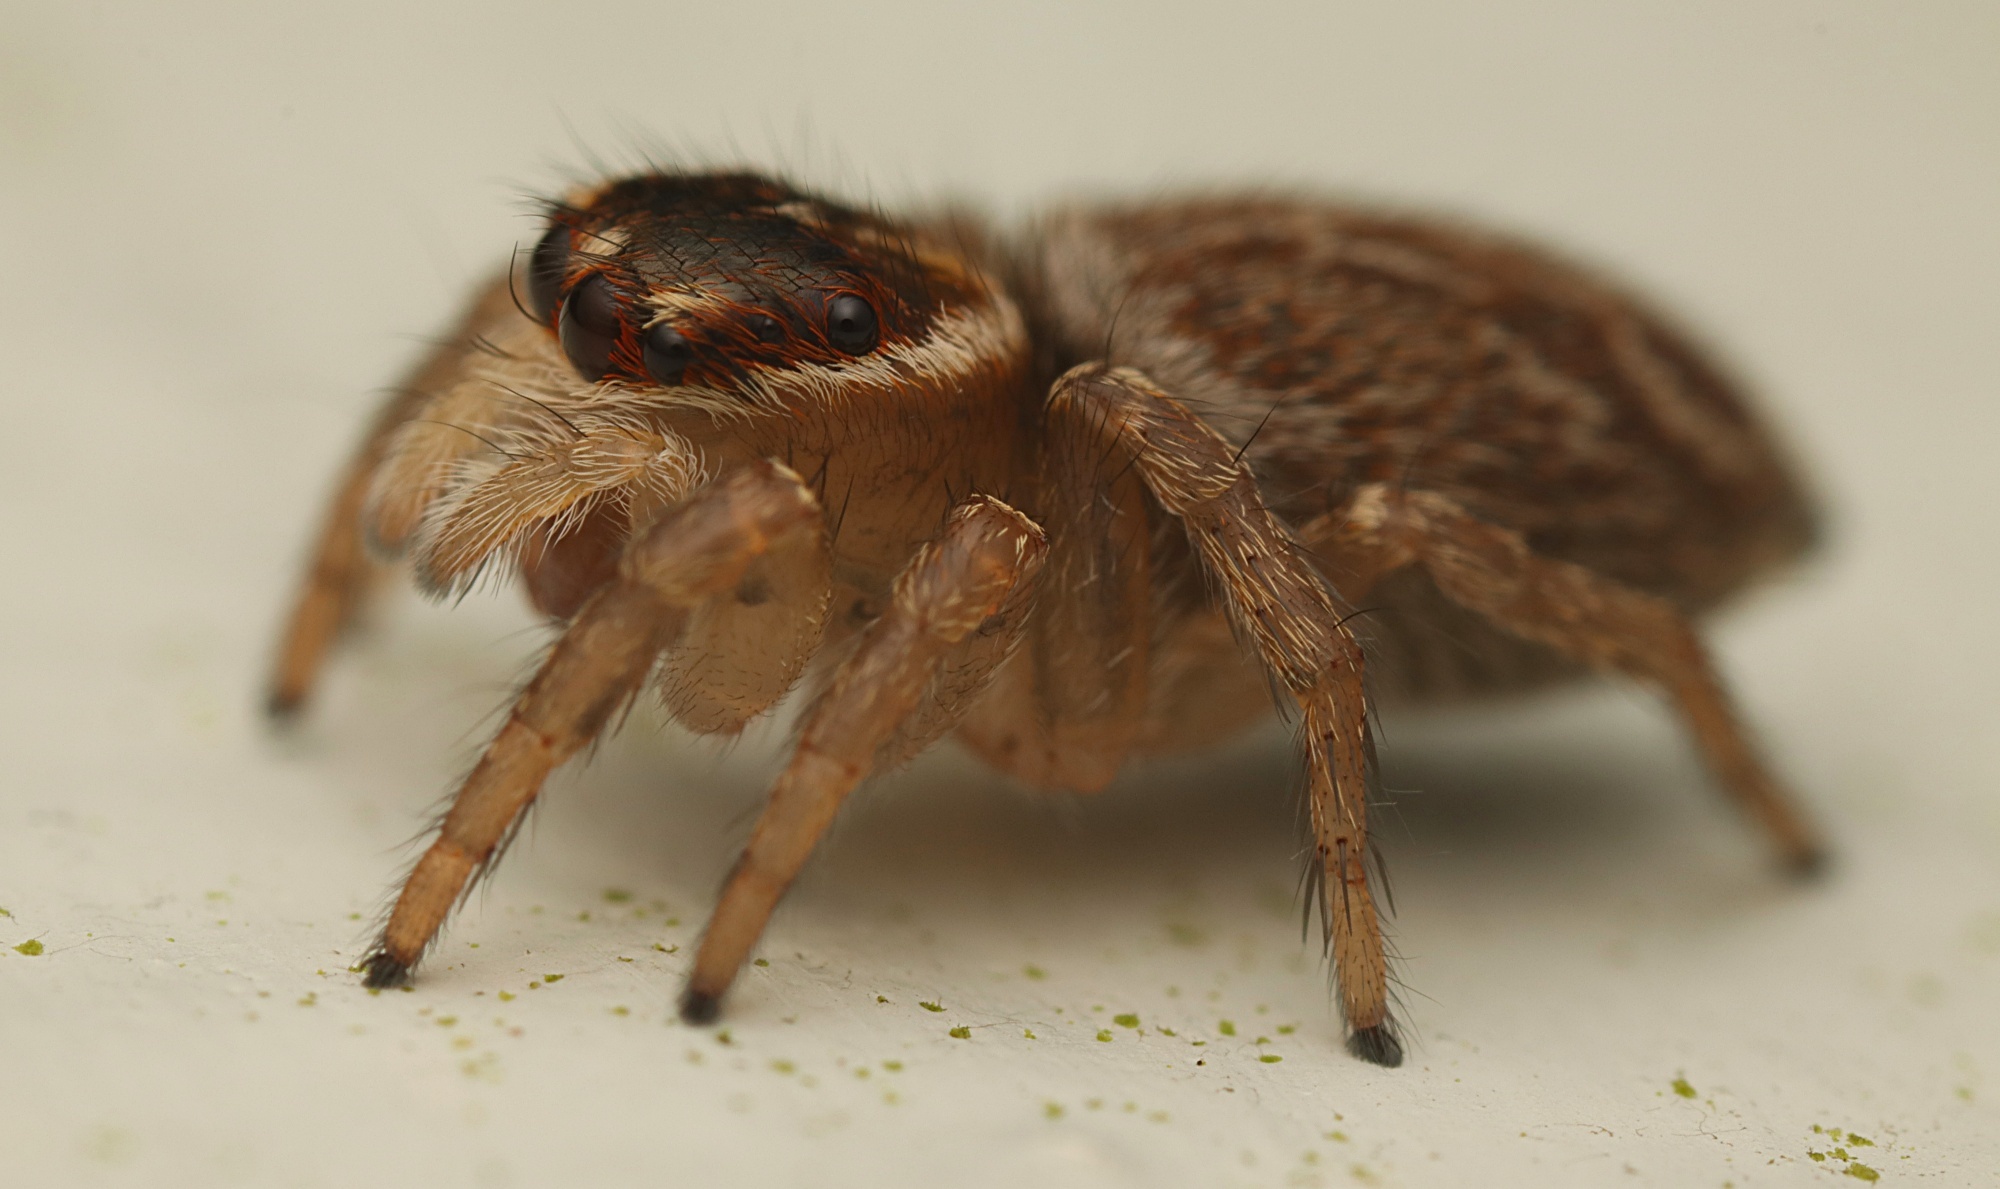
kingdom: Animalia
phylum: Arthropoda
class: Arachnida
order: Araneae
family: Salticidae
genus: Maratus
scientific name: Maratus griseus
